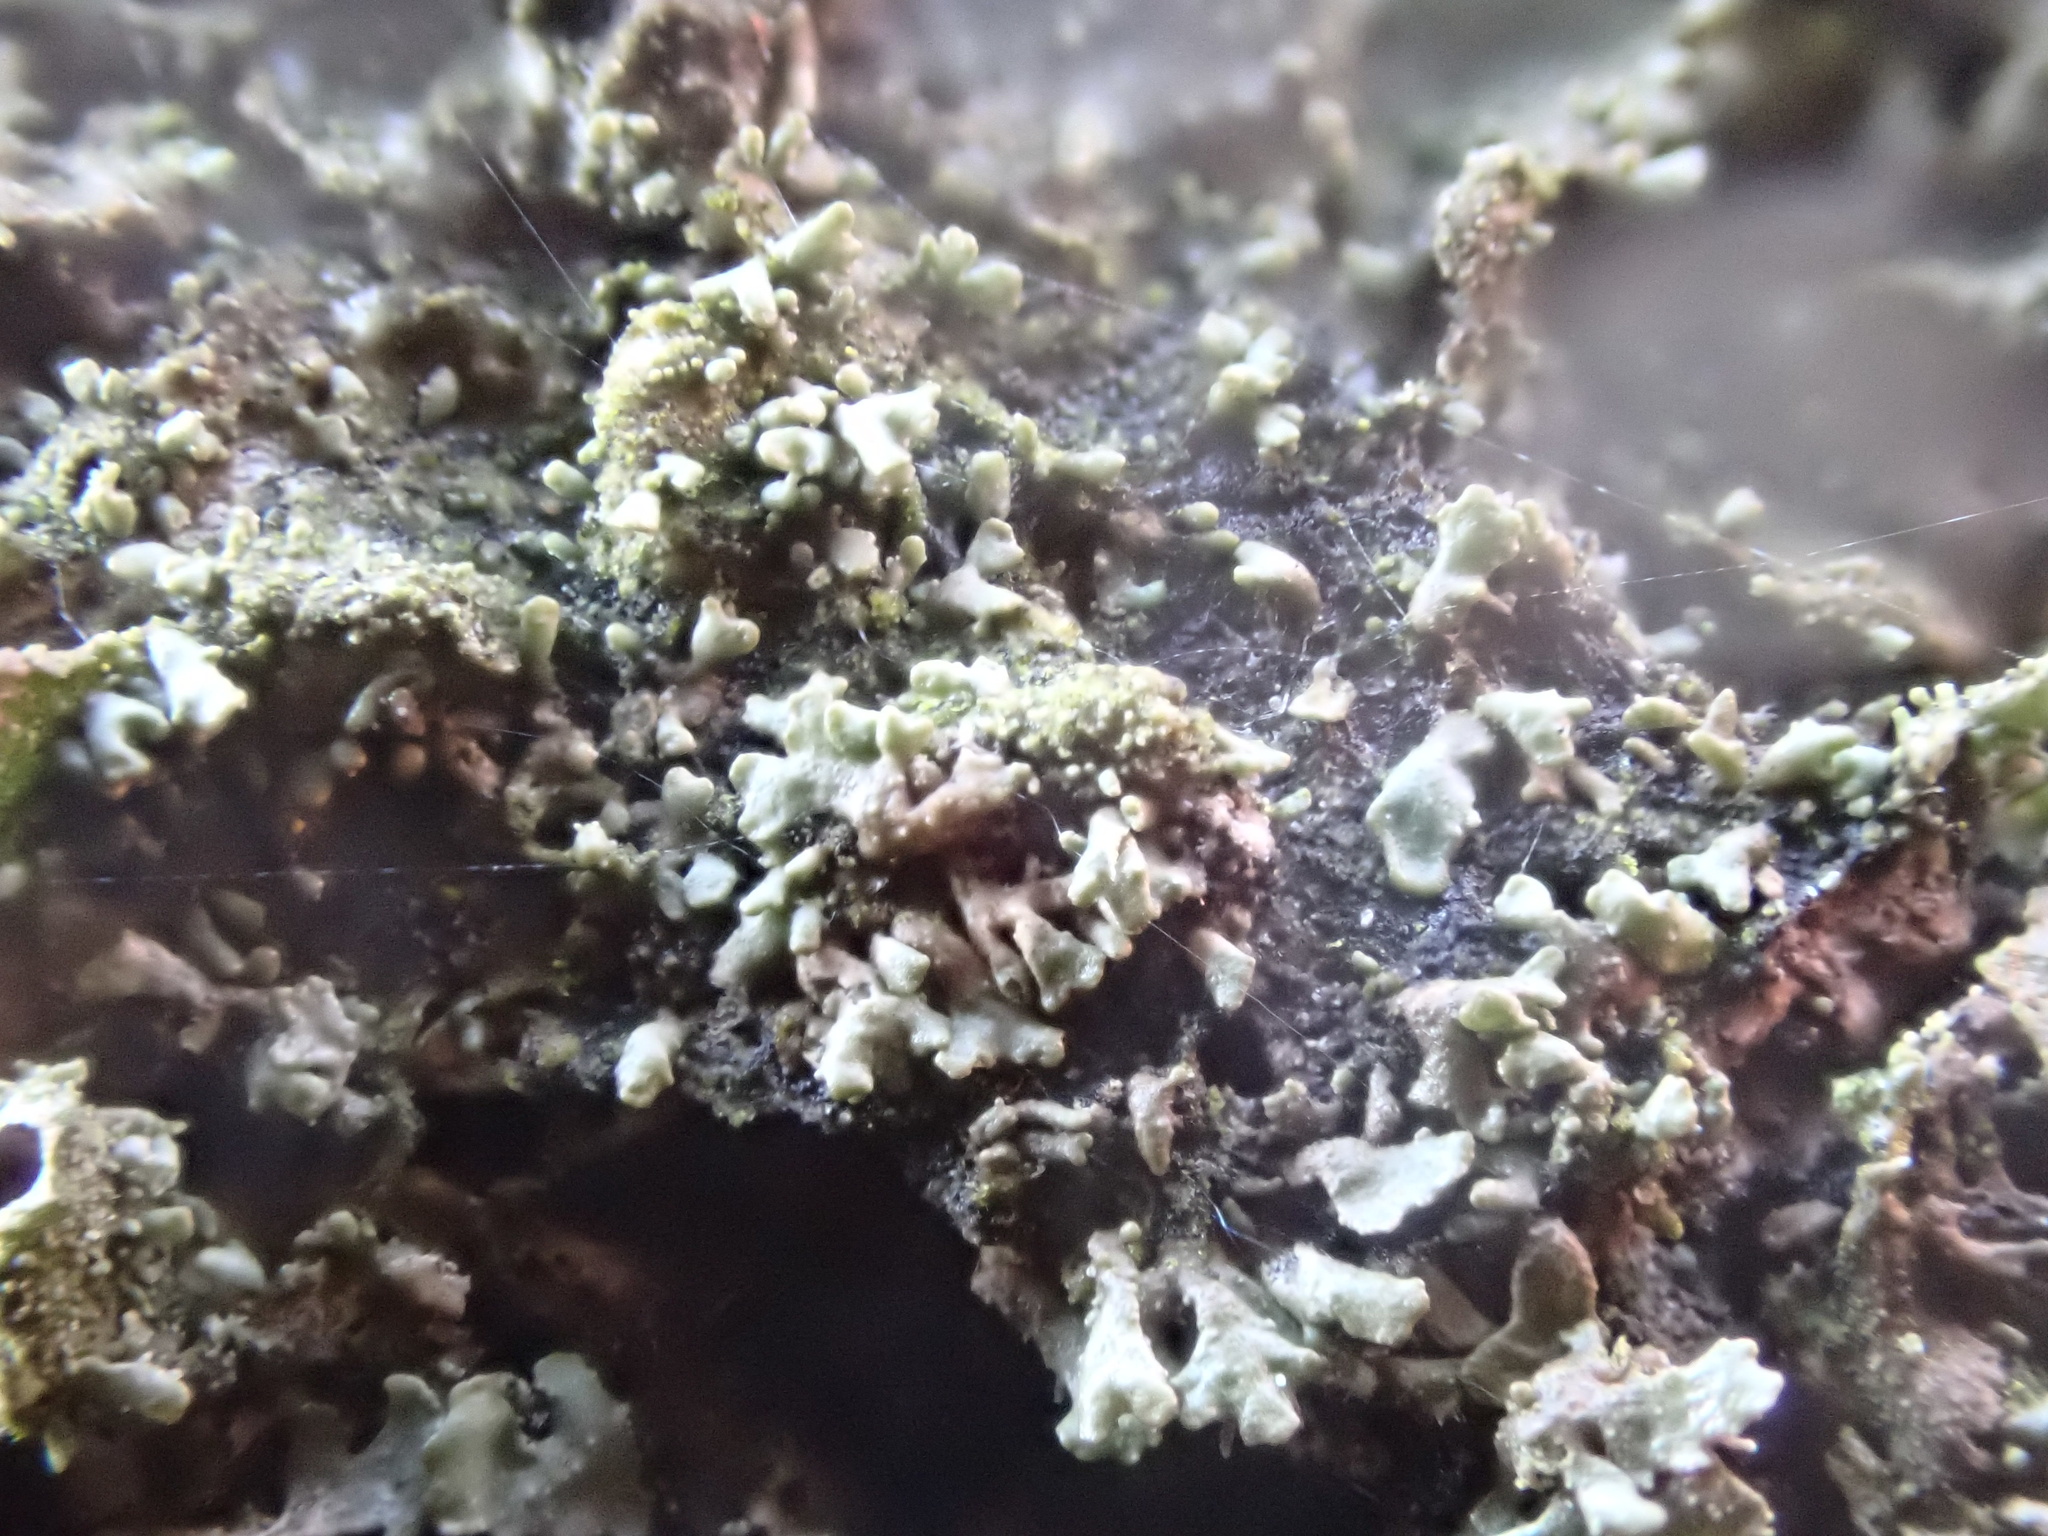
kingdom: Fungi
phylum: Ascomycota
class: Lecanoromycetes
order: Lecanorales
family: Parmeliaceae
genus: Melanohalea
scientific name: Melanohalea exasperatula
